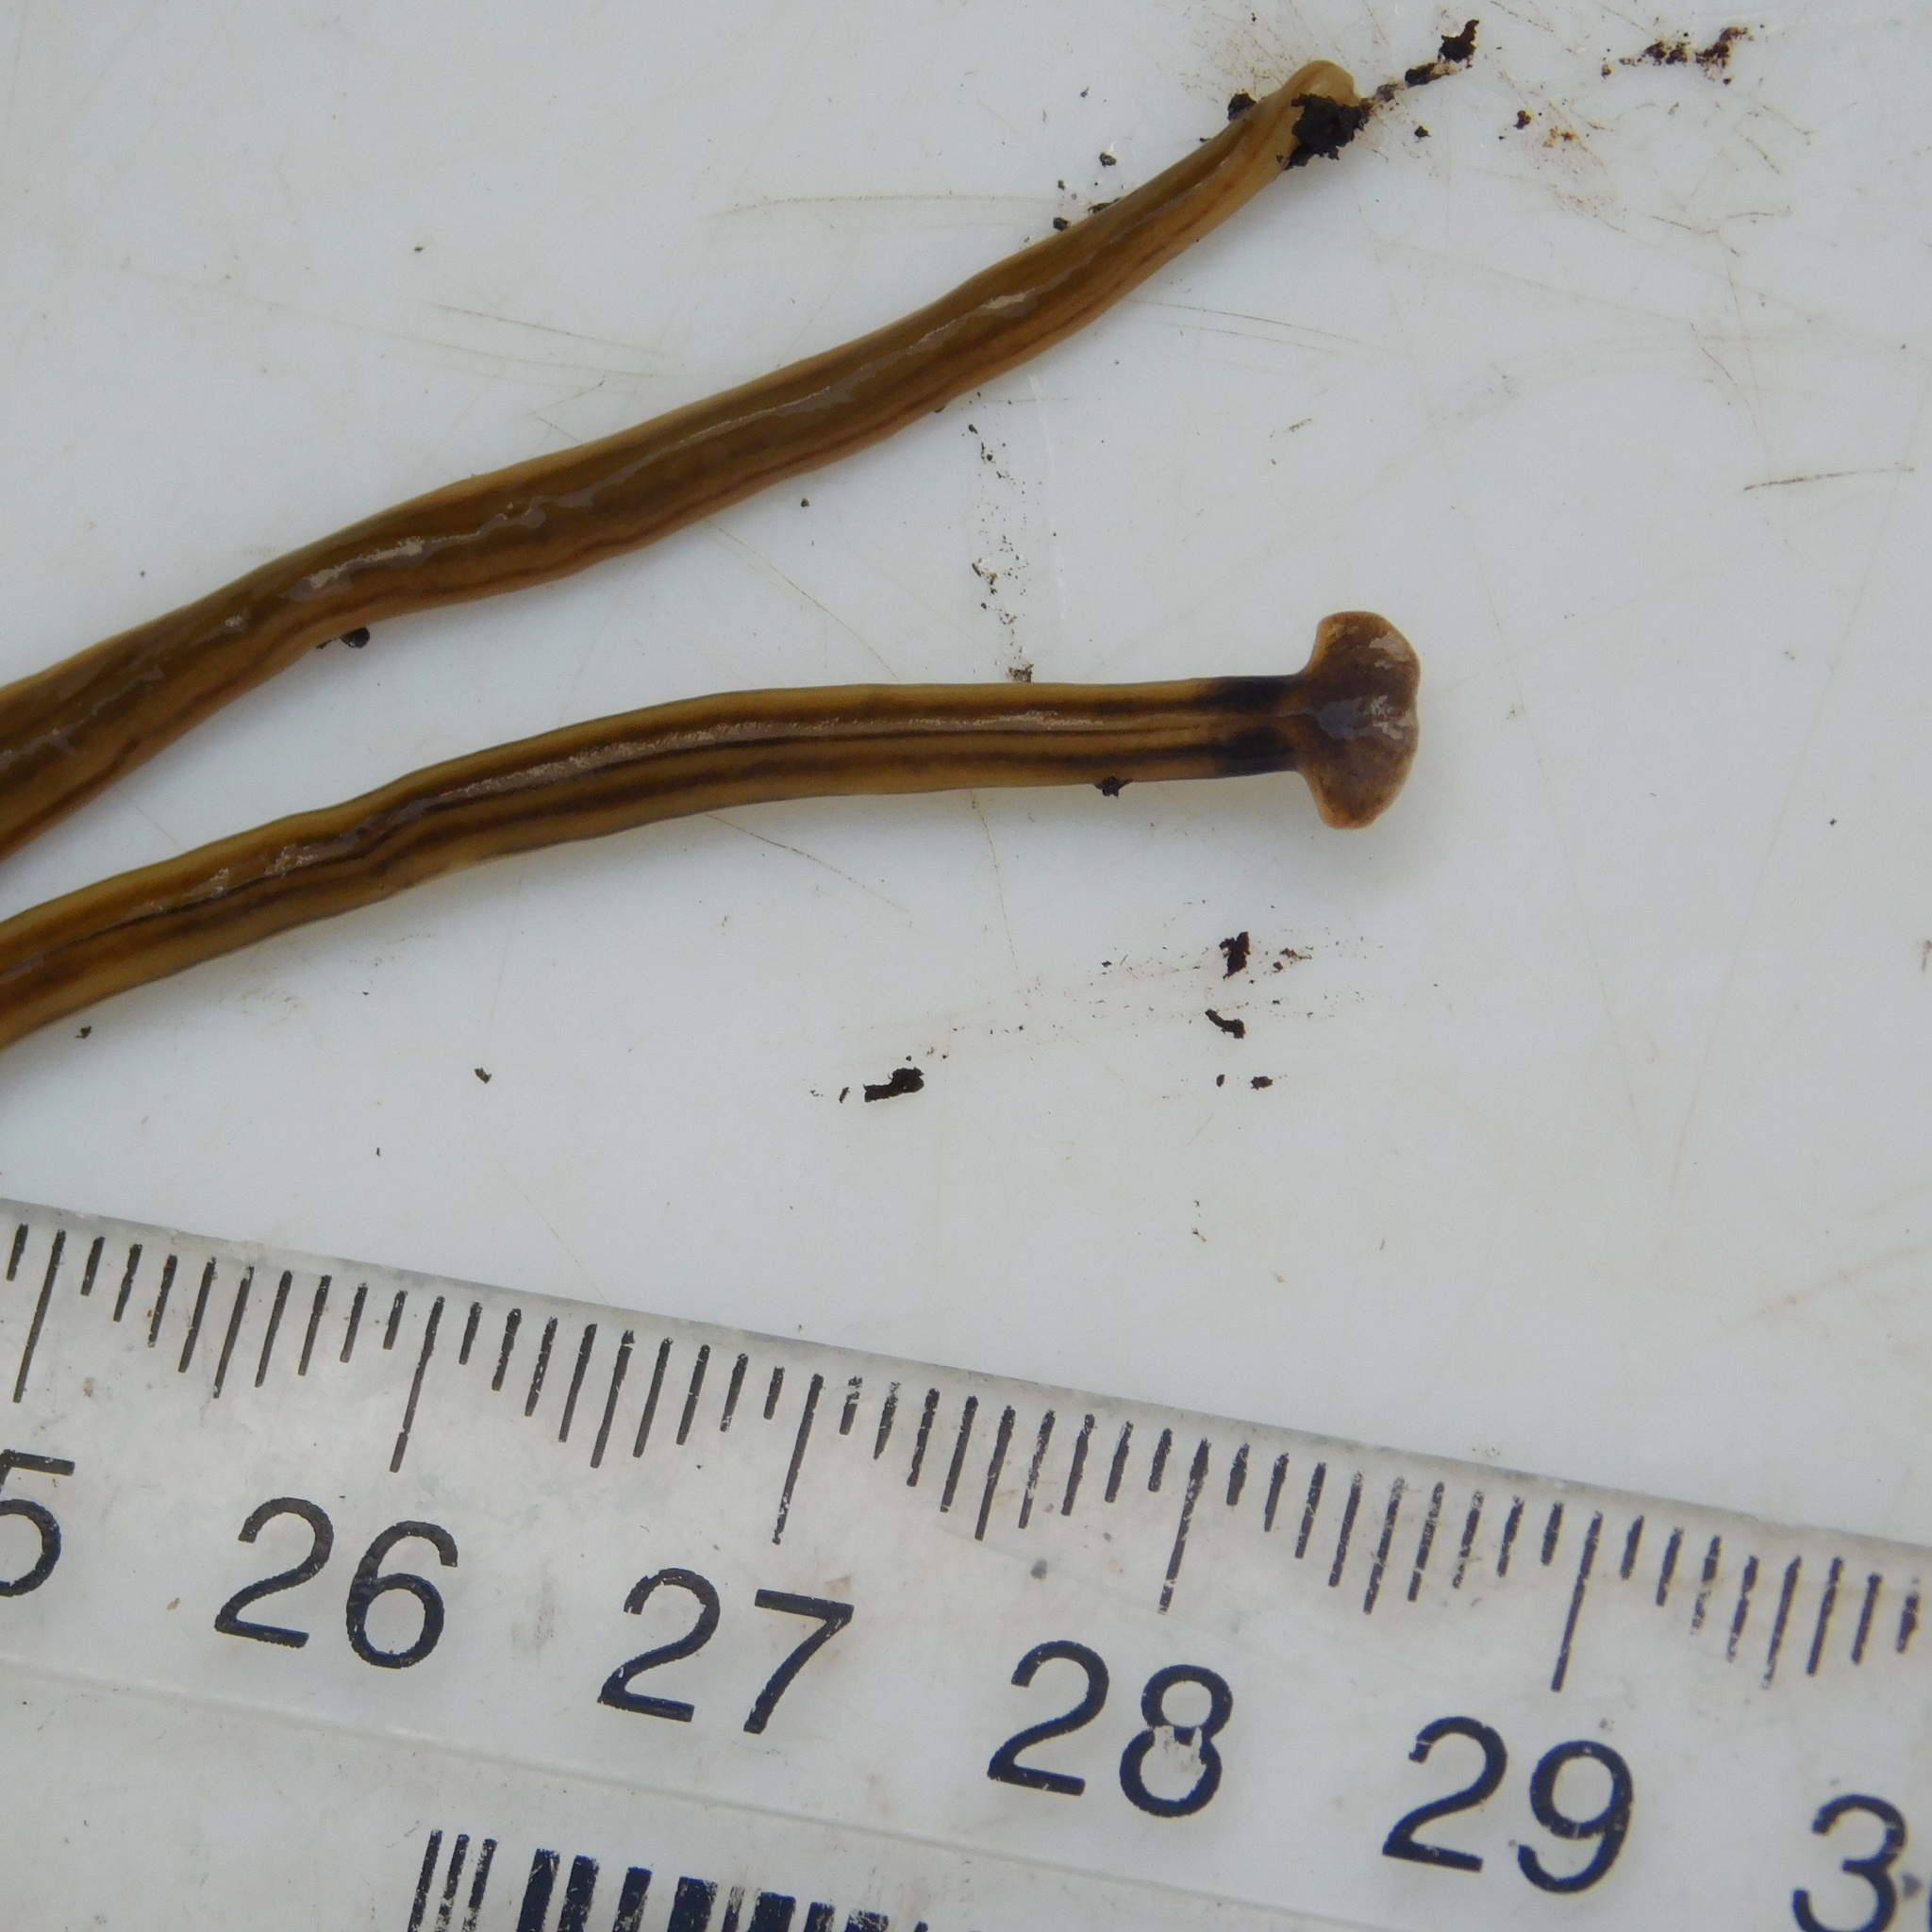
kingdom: Animalia
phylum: Platyhelminthes
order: Tricladida
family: Geoplanidae
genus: Bipalium
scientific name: Bipalium kewense
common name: Hammerhead flatworm
